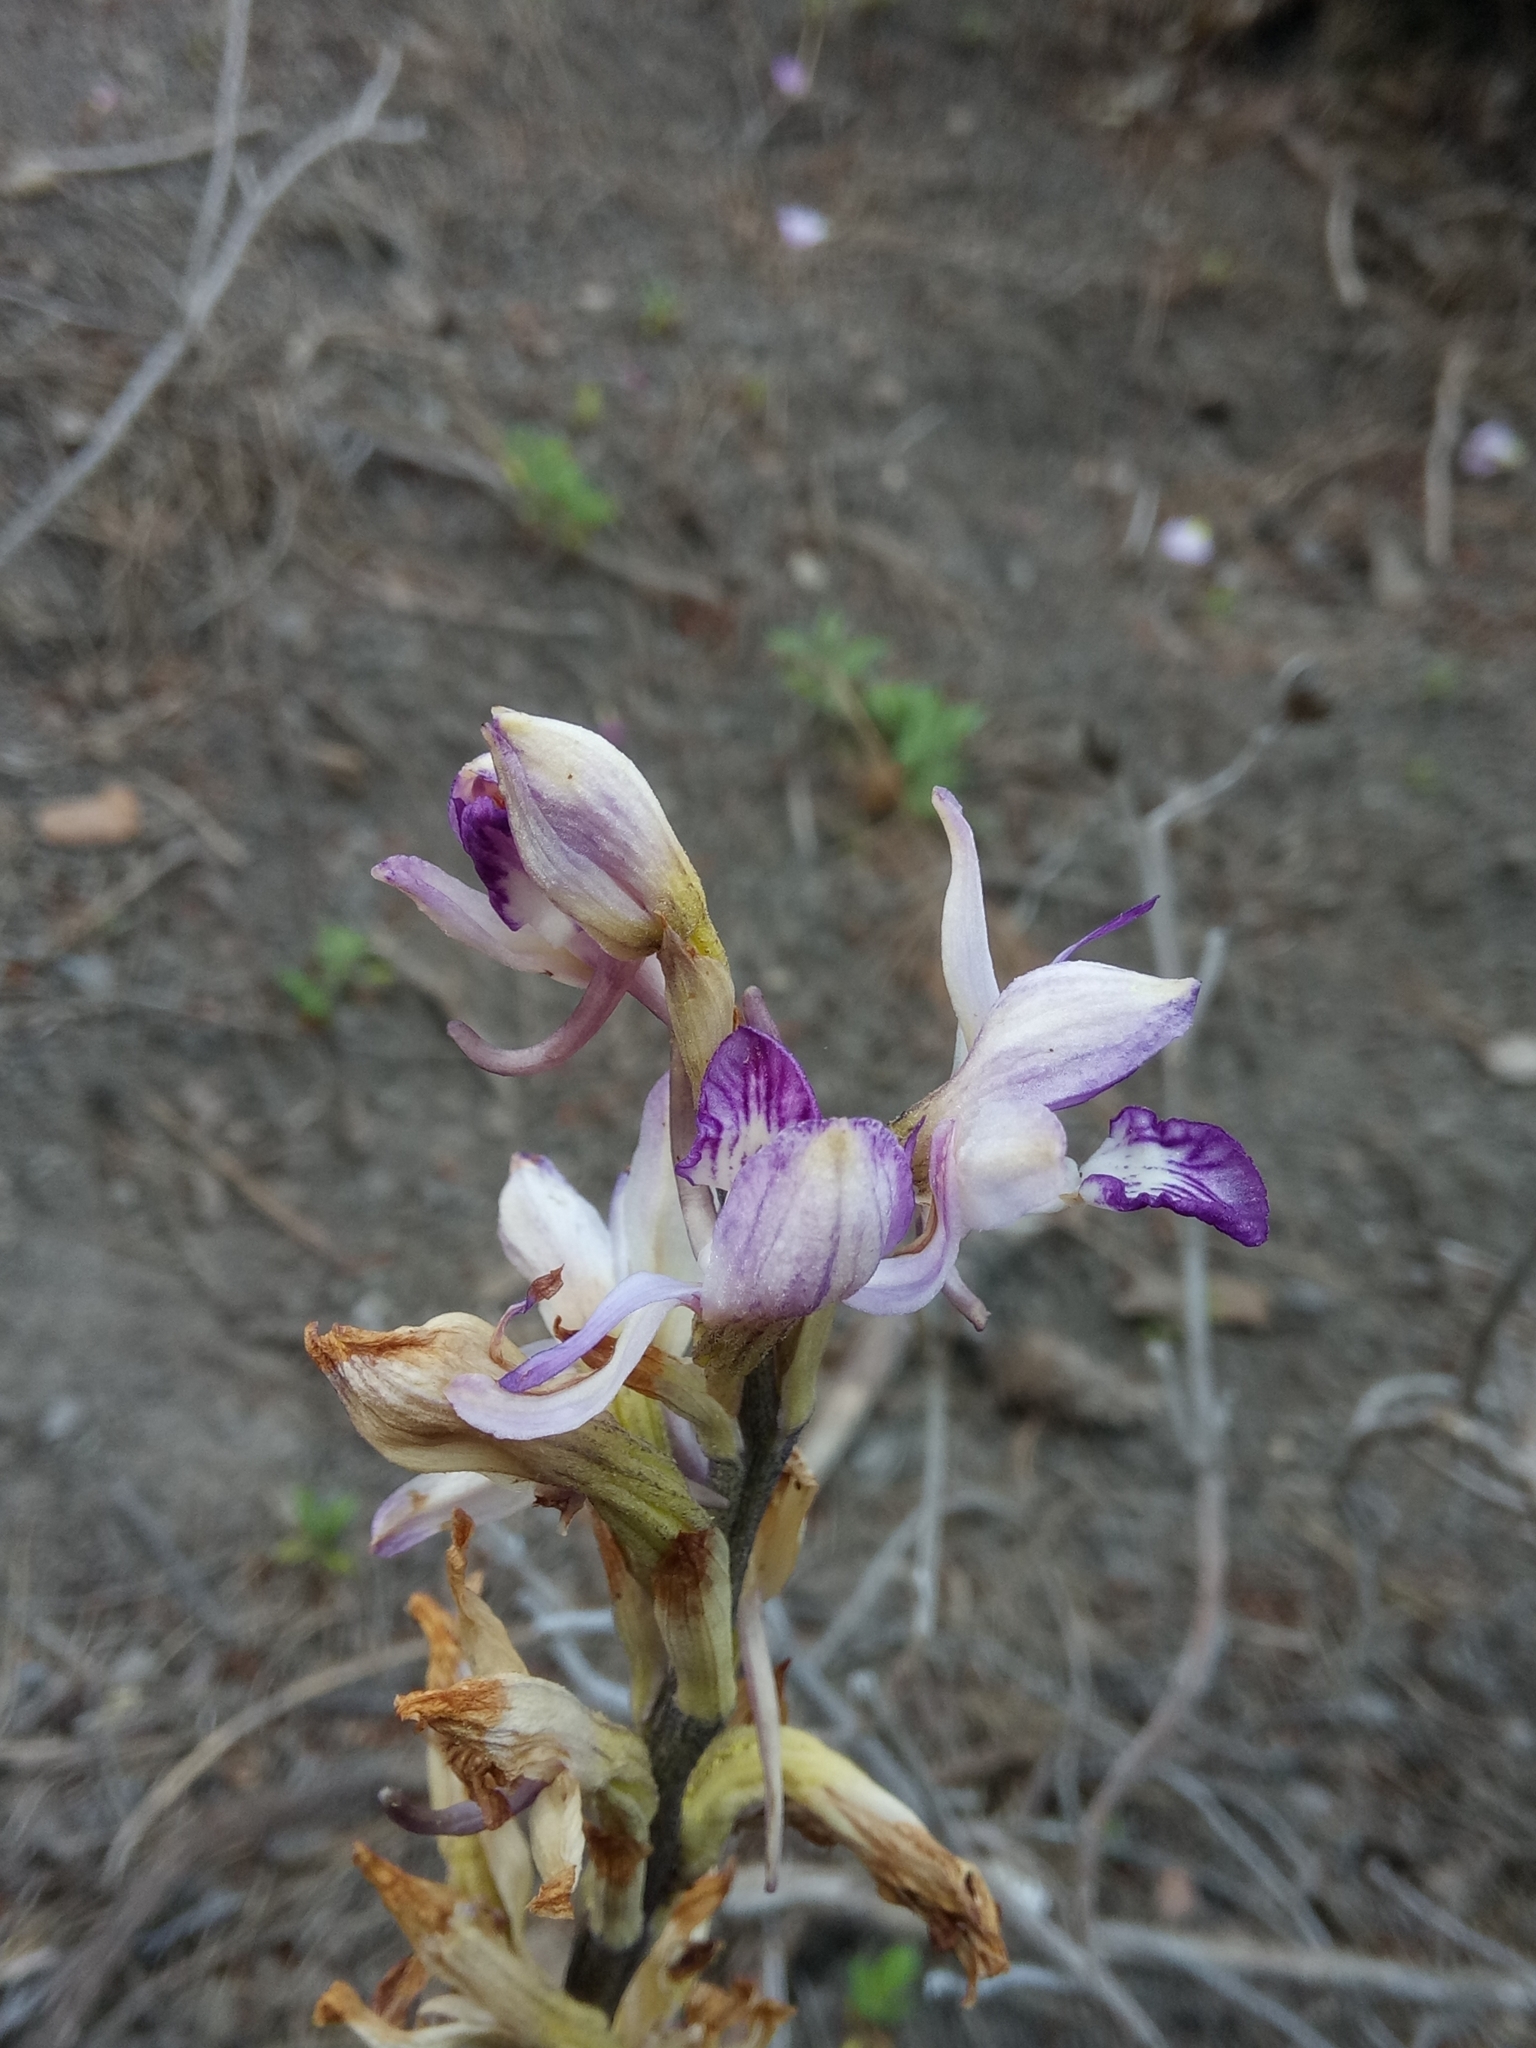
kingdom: Plantae
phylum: Tracheophyta
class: Liliopsida
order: Asparagales
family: Orchidaceae
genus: Limodorum
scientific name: Limodorum abortivum
